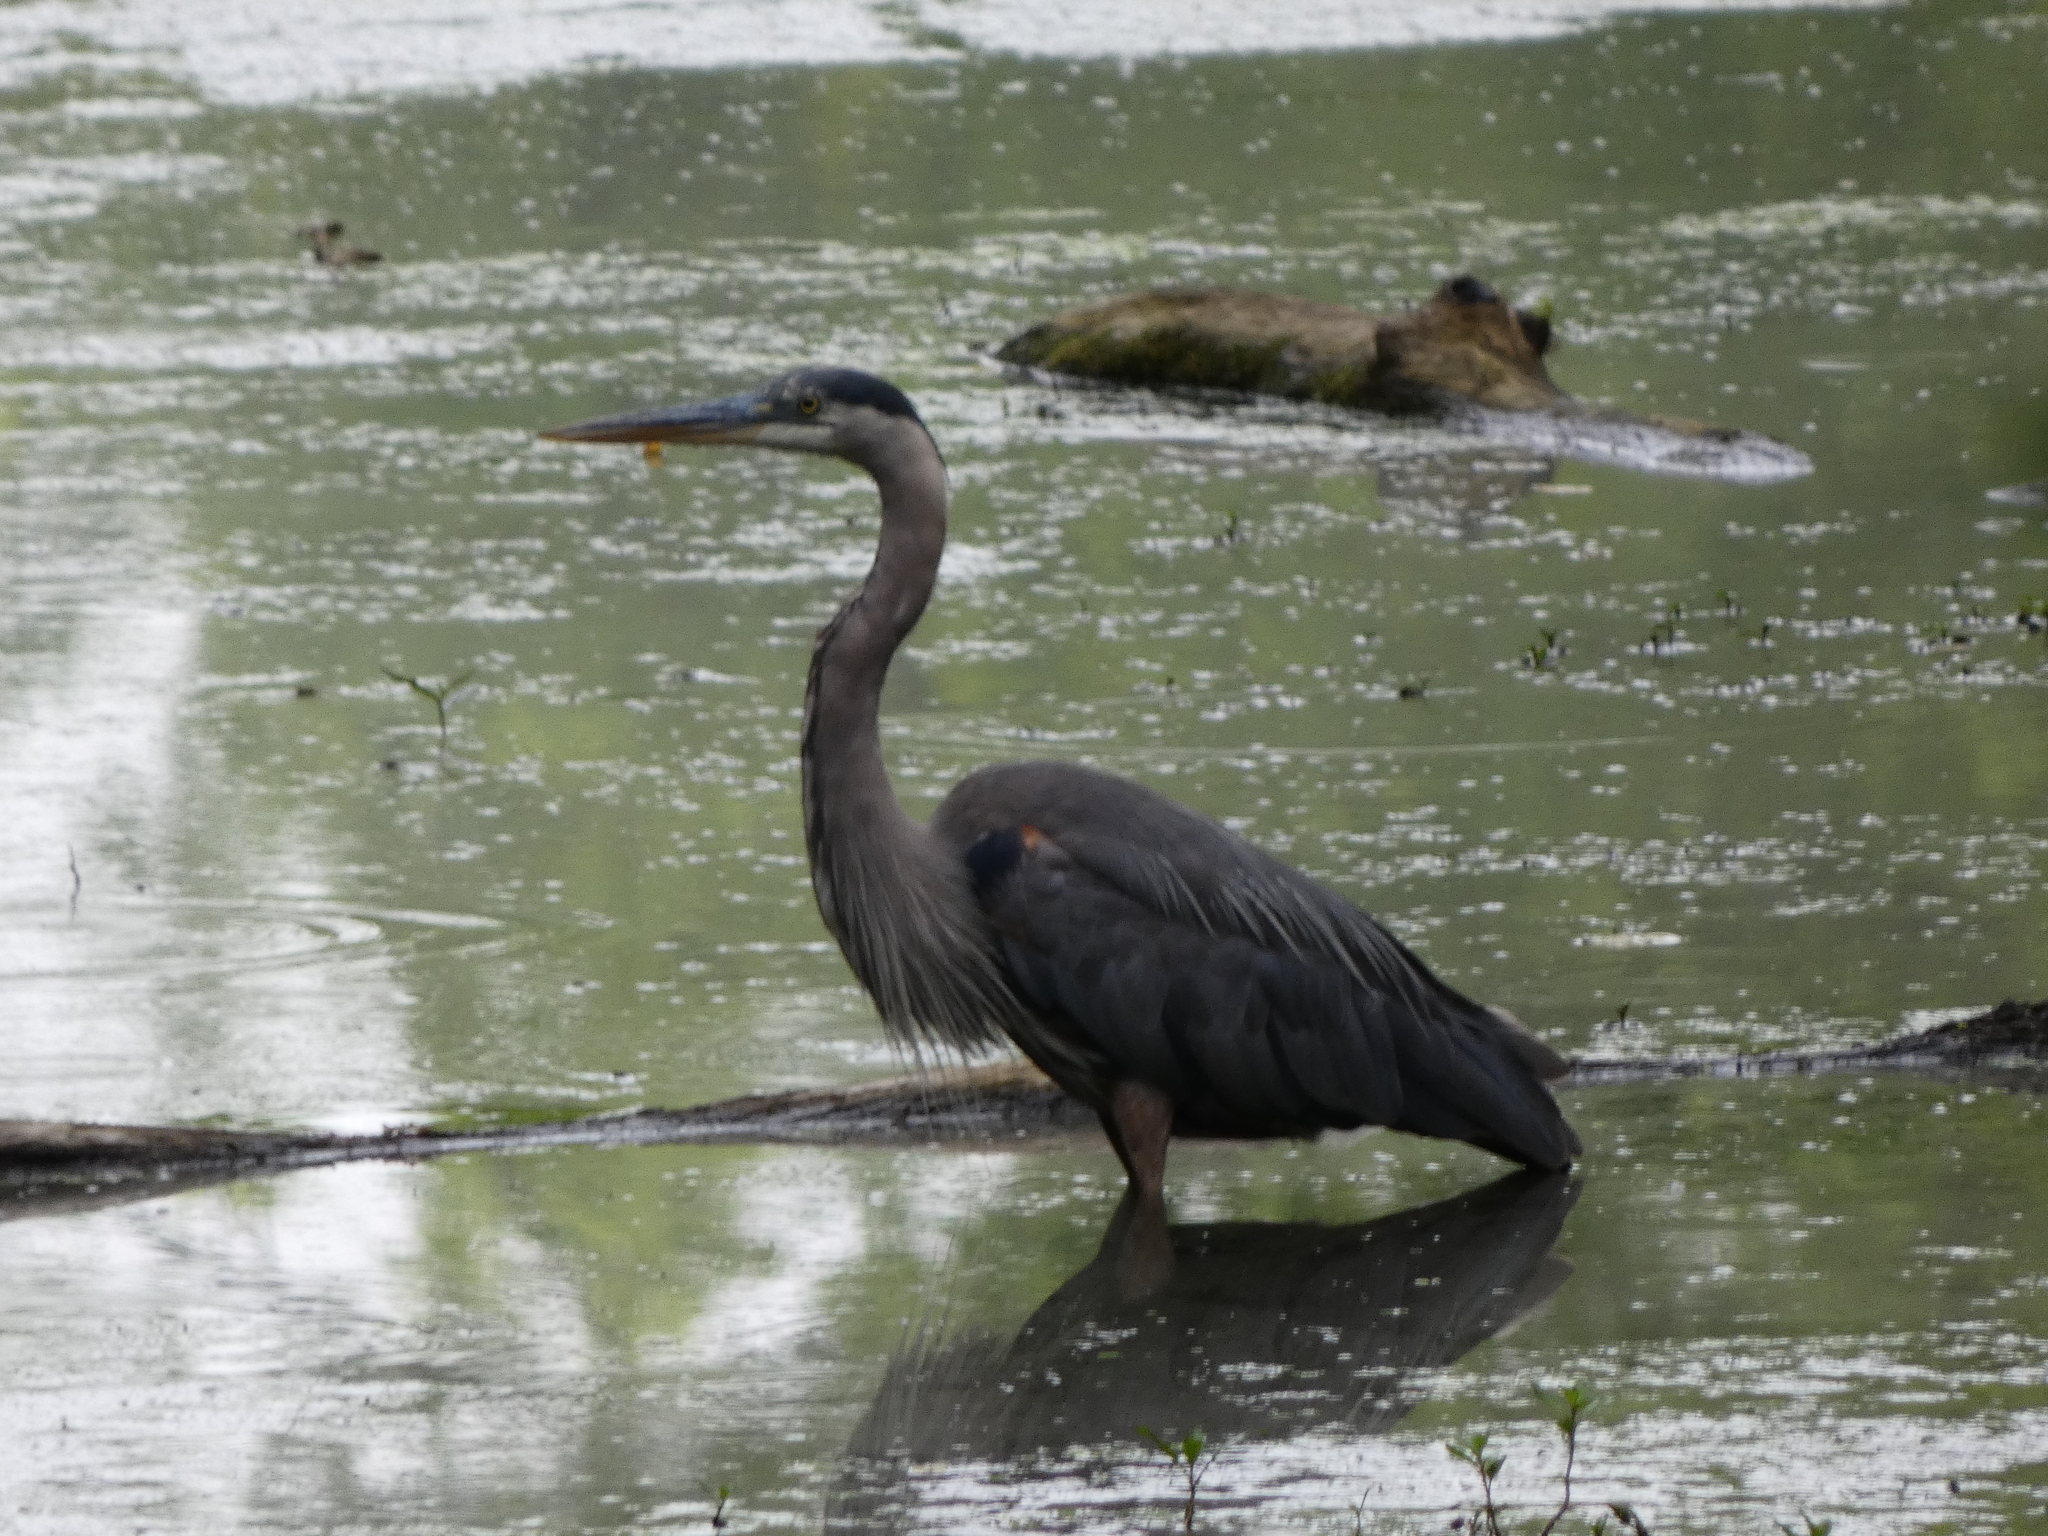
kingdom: Animalia
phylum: Chordata
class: Aves
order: Pelecaniformes
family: Ardeidae
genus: Ardea
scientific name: Ardea herodias
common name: Great blue heron
